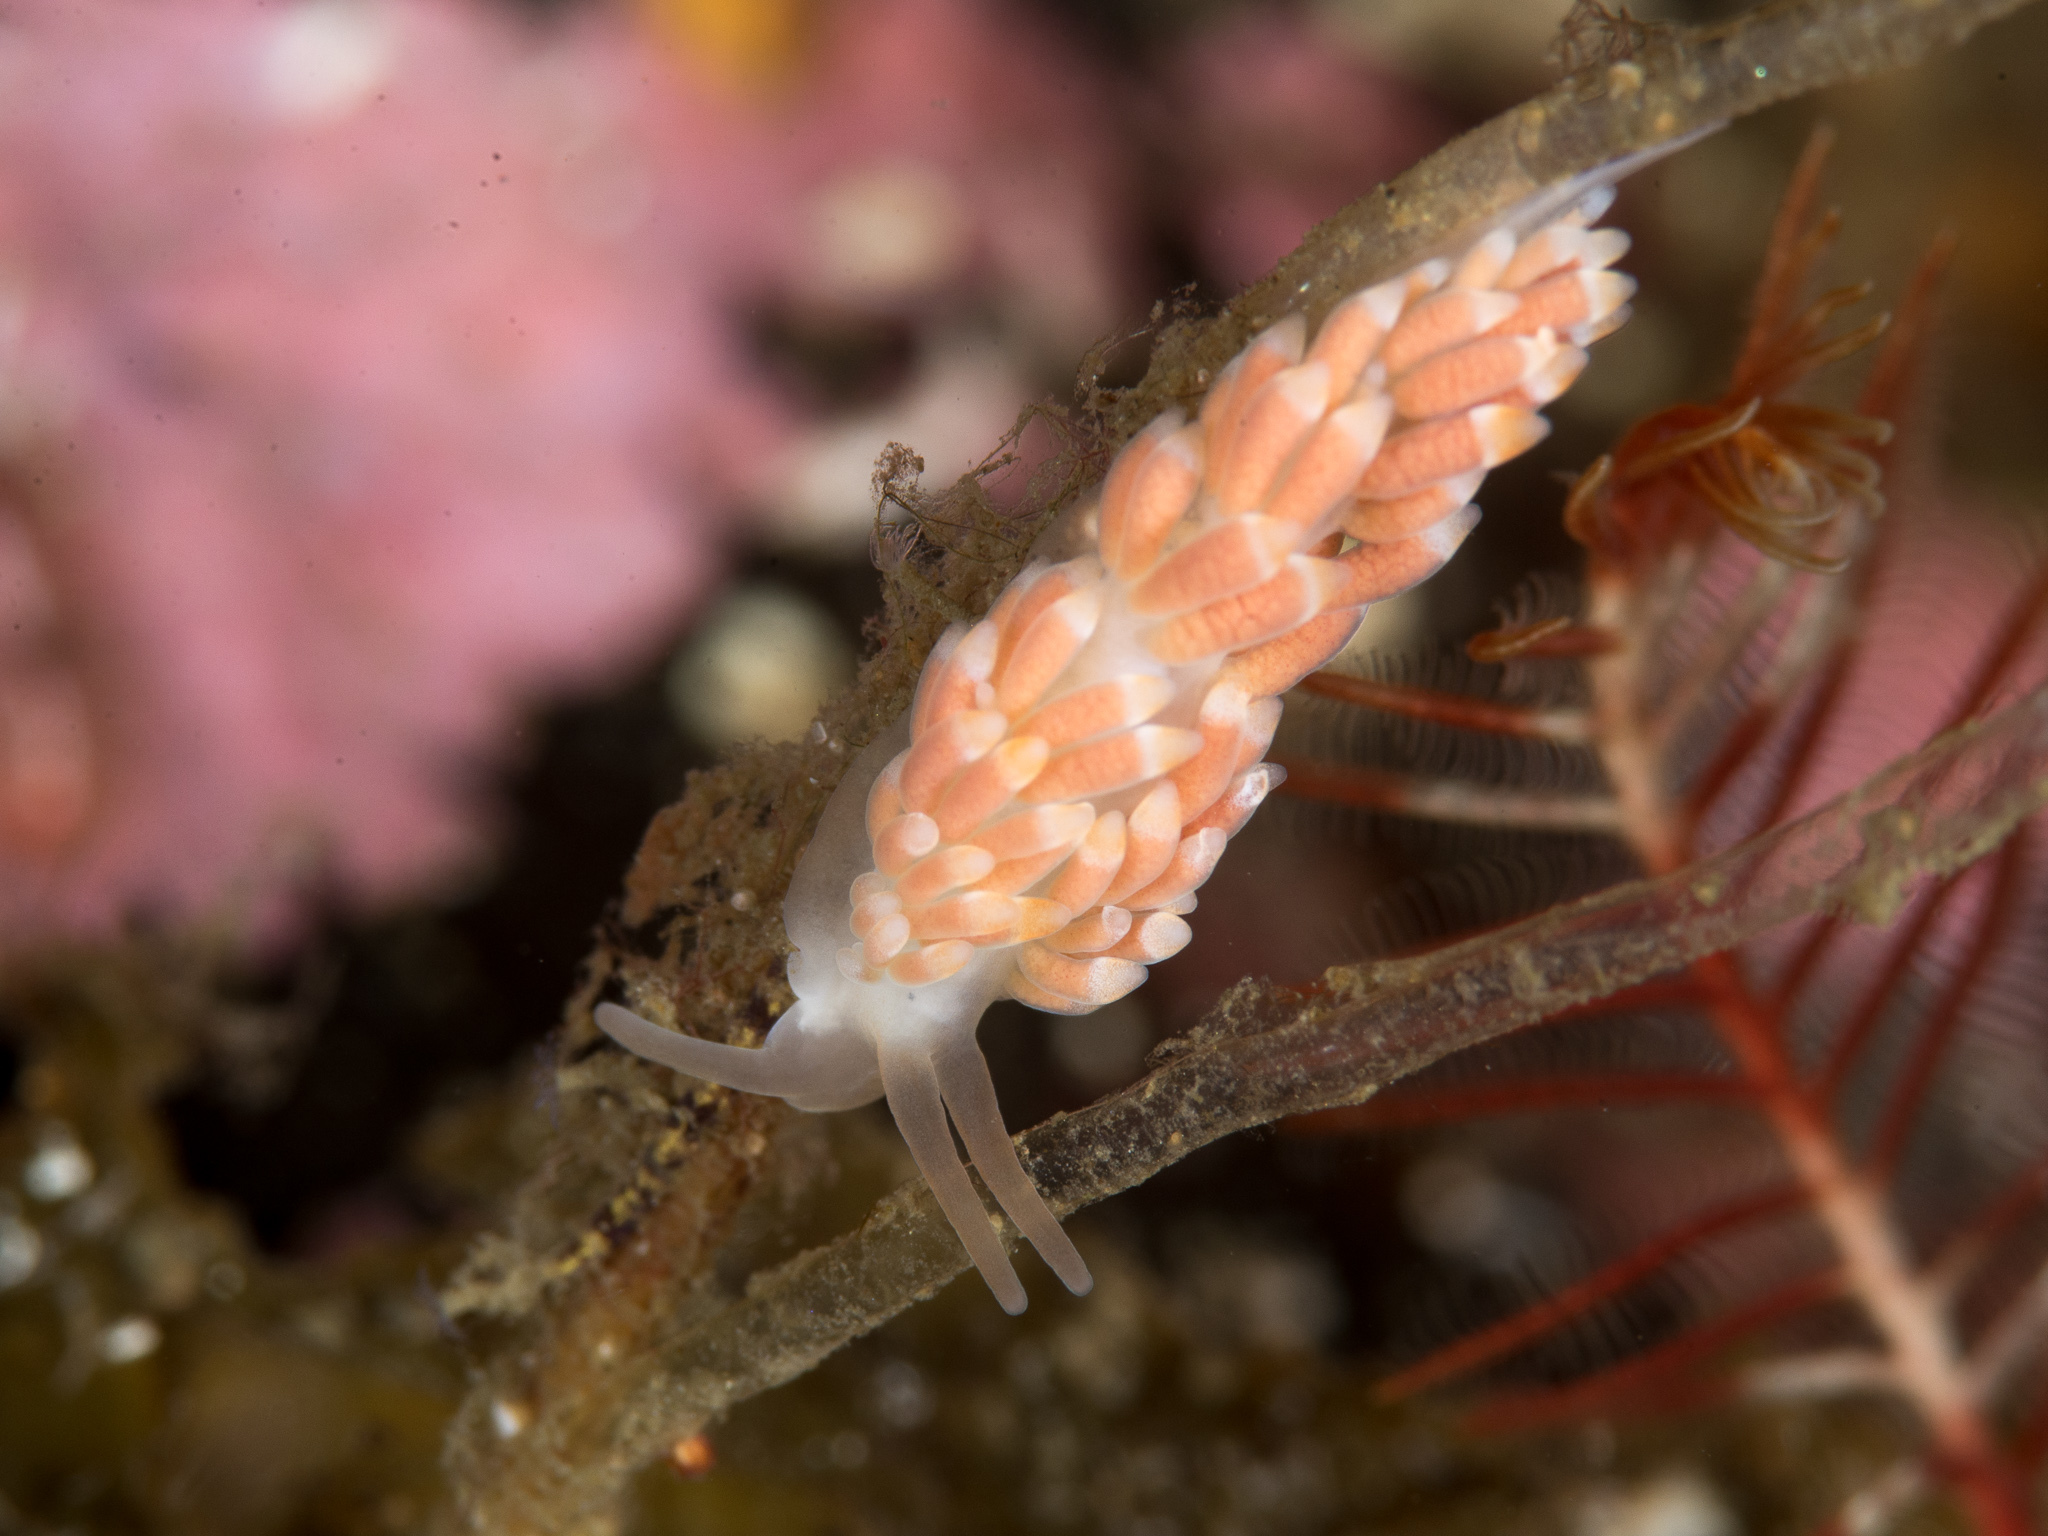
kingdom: Animalia
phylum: Mollusca
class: Gastropoda
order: Nudibranchia
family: Trinchesiidae
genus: Catriona
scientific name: Catriona aurantia
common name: Corange-tip cuthona
